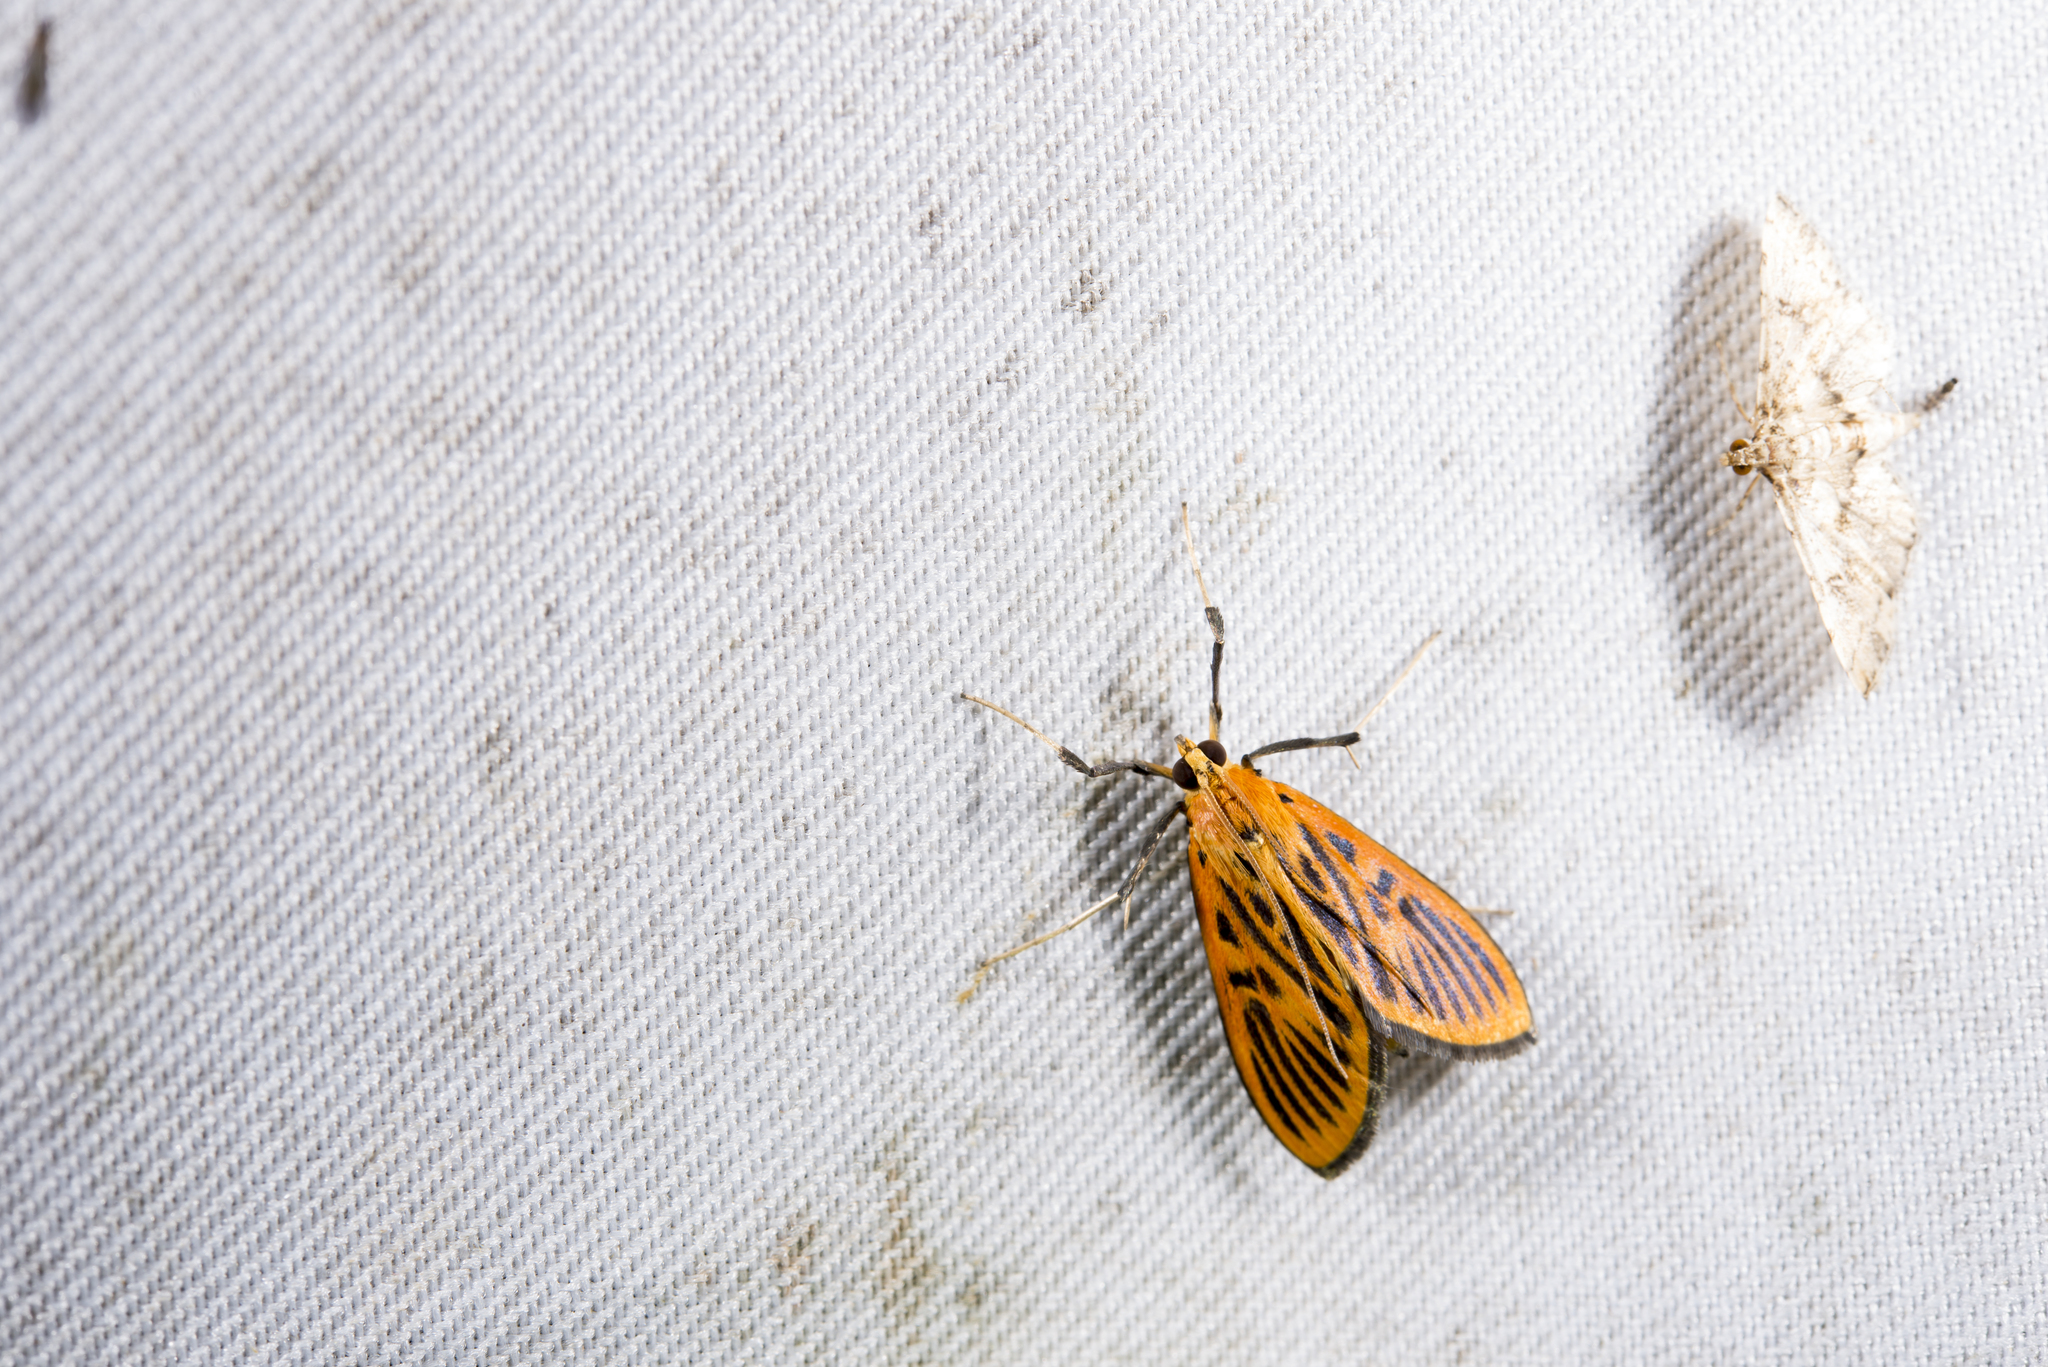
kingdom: Animalia
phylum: Arthropoda
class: Insecta
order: Lepidoptera
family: Crambidae
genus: Tyspanodes
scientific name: Tyspanodes striata
